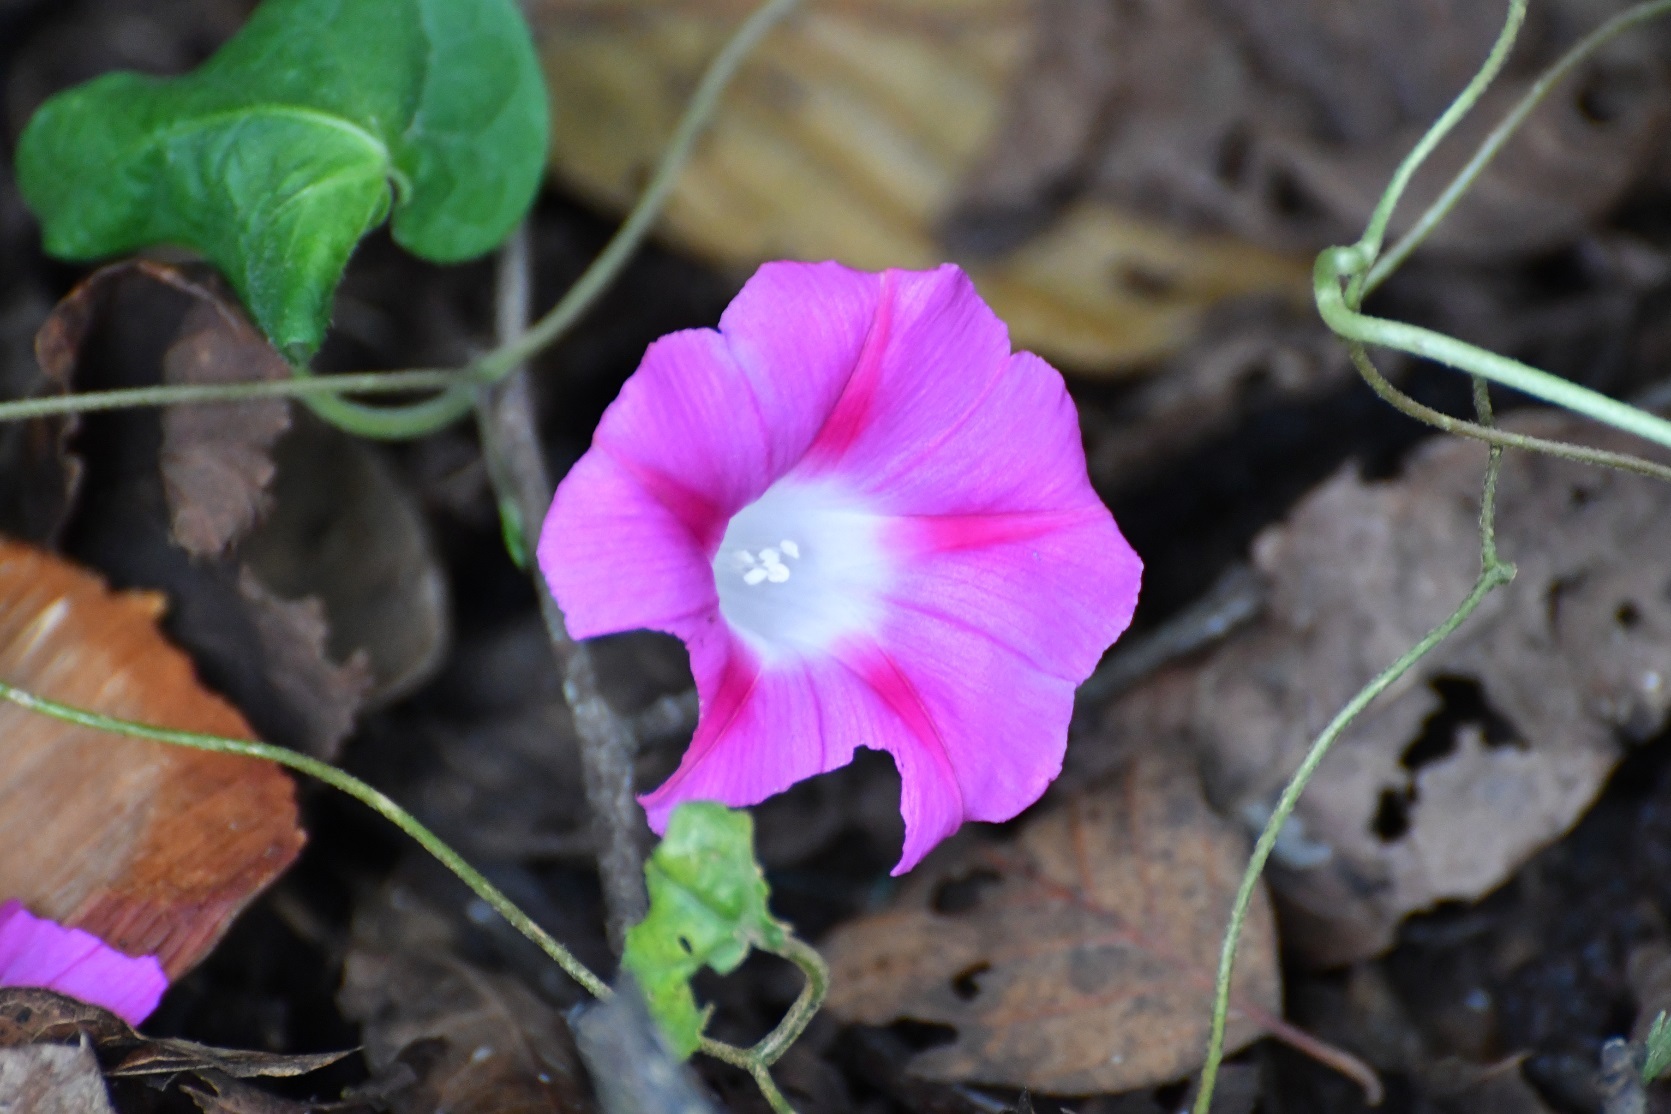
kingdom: Plantae
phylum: Tracheophyta
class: Magnoliopsida
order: Solanales
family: Convolvulaceae
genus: Ipomoea
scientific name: Ipomoea purpurea
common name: Common morning-glory
